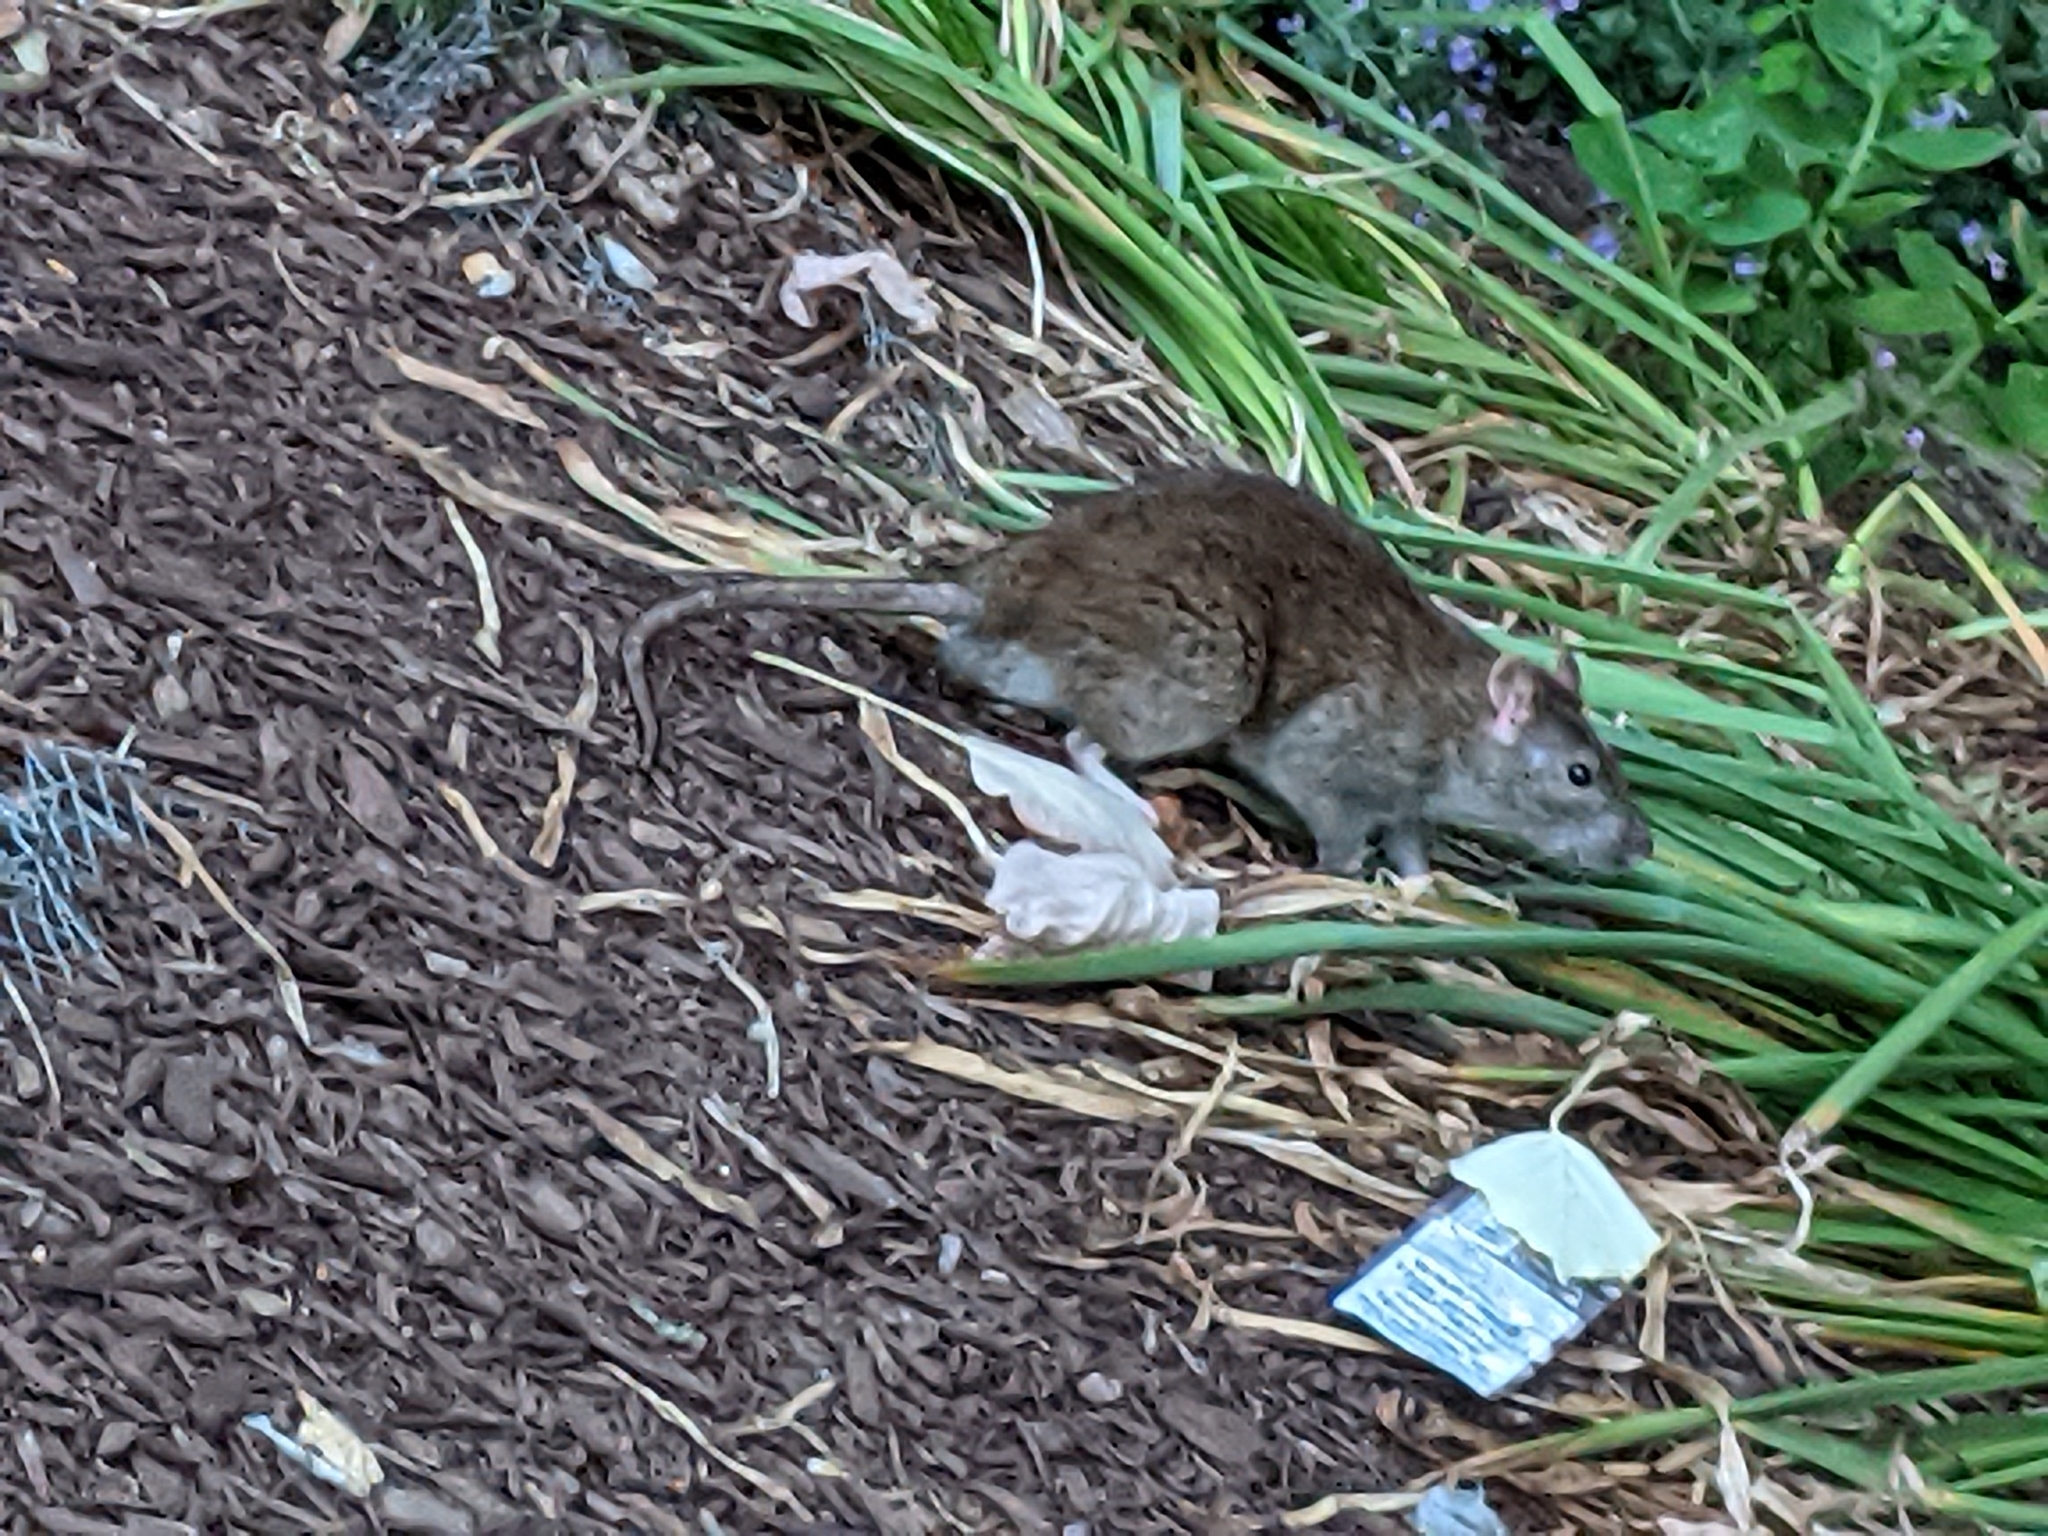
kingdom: Animalia
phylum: Chordata
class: Mammalia
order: Rodentia
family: Muridae
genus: Rattus
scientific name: Rattus norvegicus
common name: Brown rat
